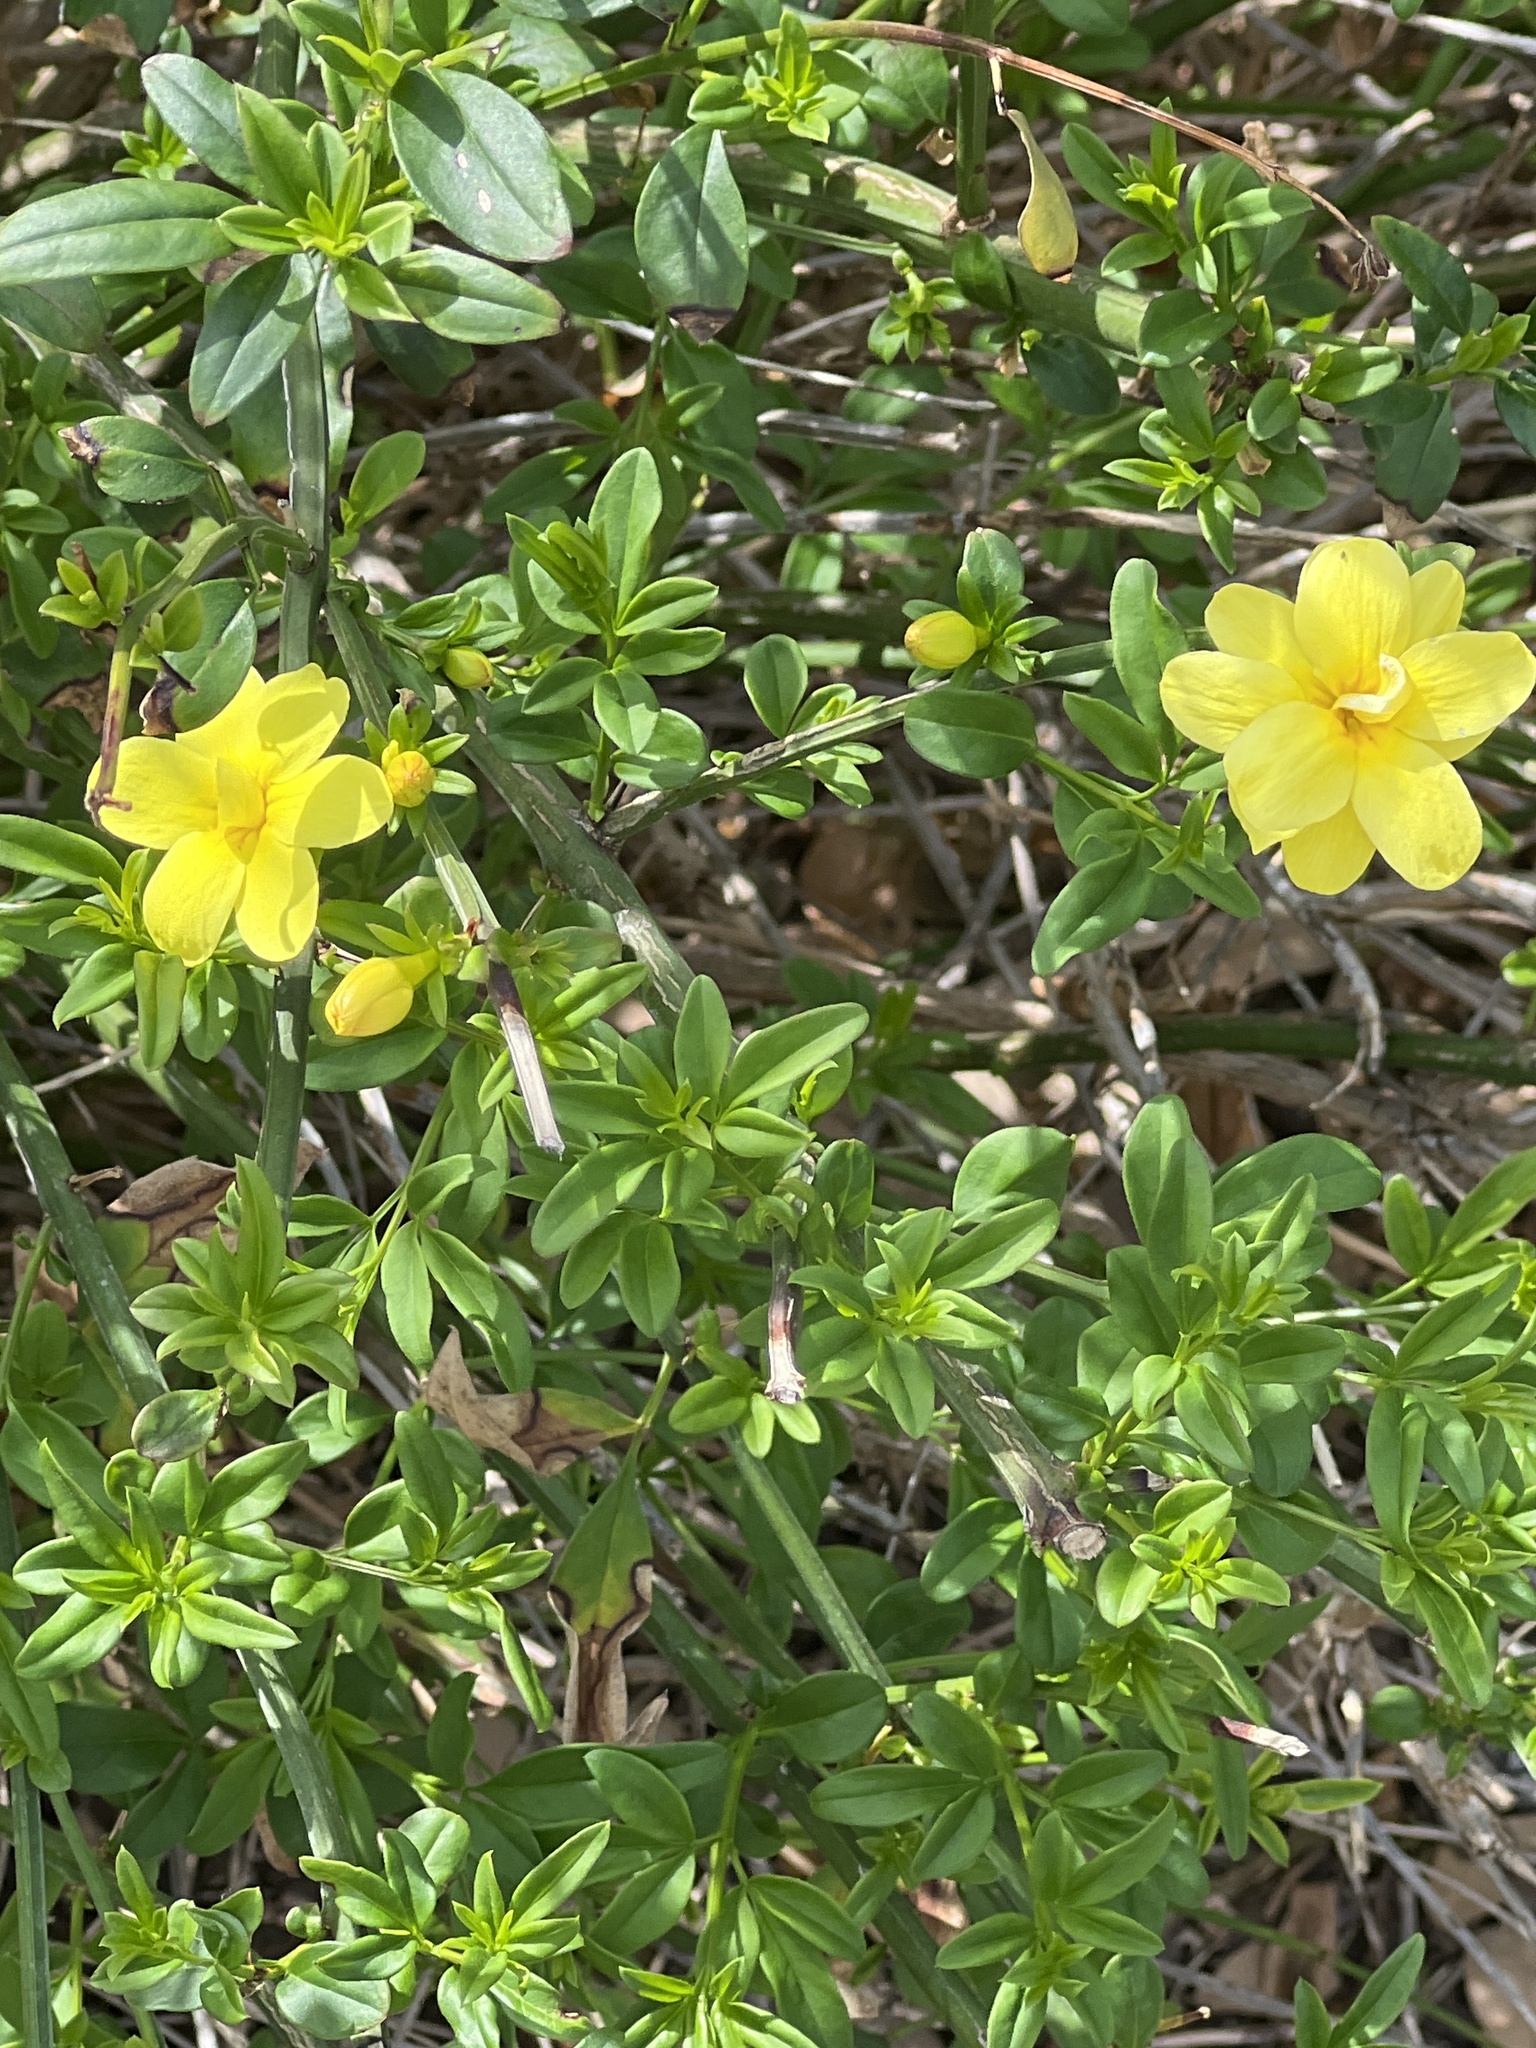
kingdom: Plantae
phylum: Tracheophyta
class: Magnoliopsida
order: Lamiales
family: Oleaceae
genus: Jasminum
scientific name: Jasminum mesnyi
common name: Japanese jasmine
